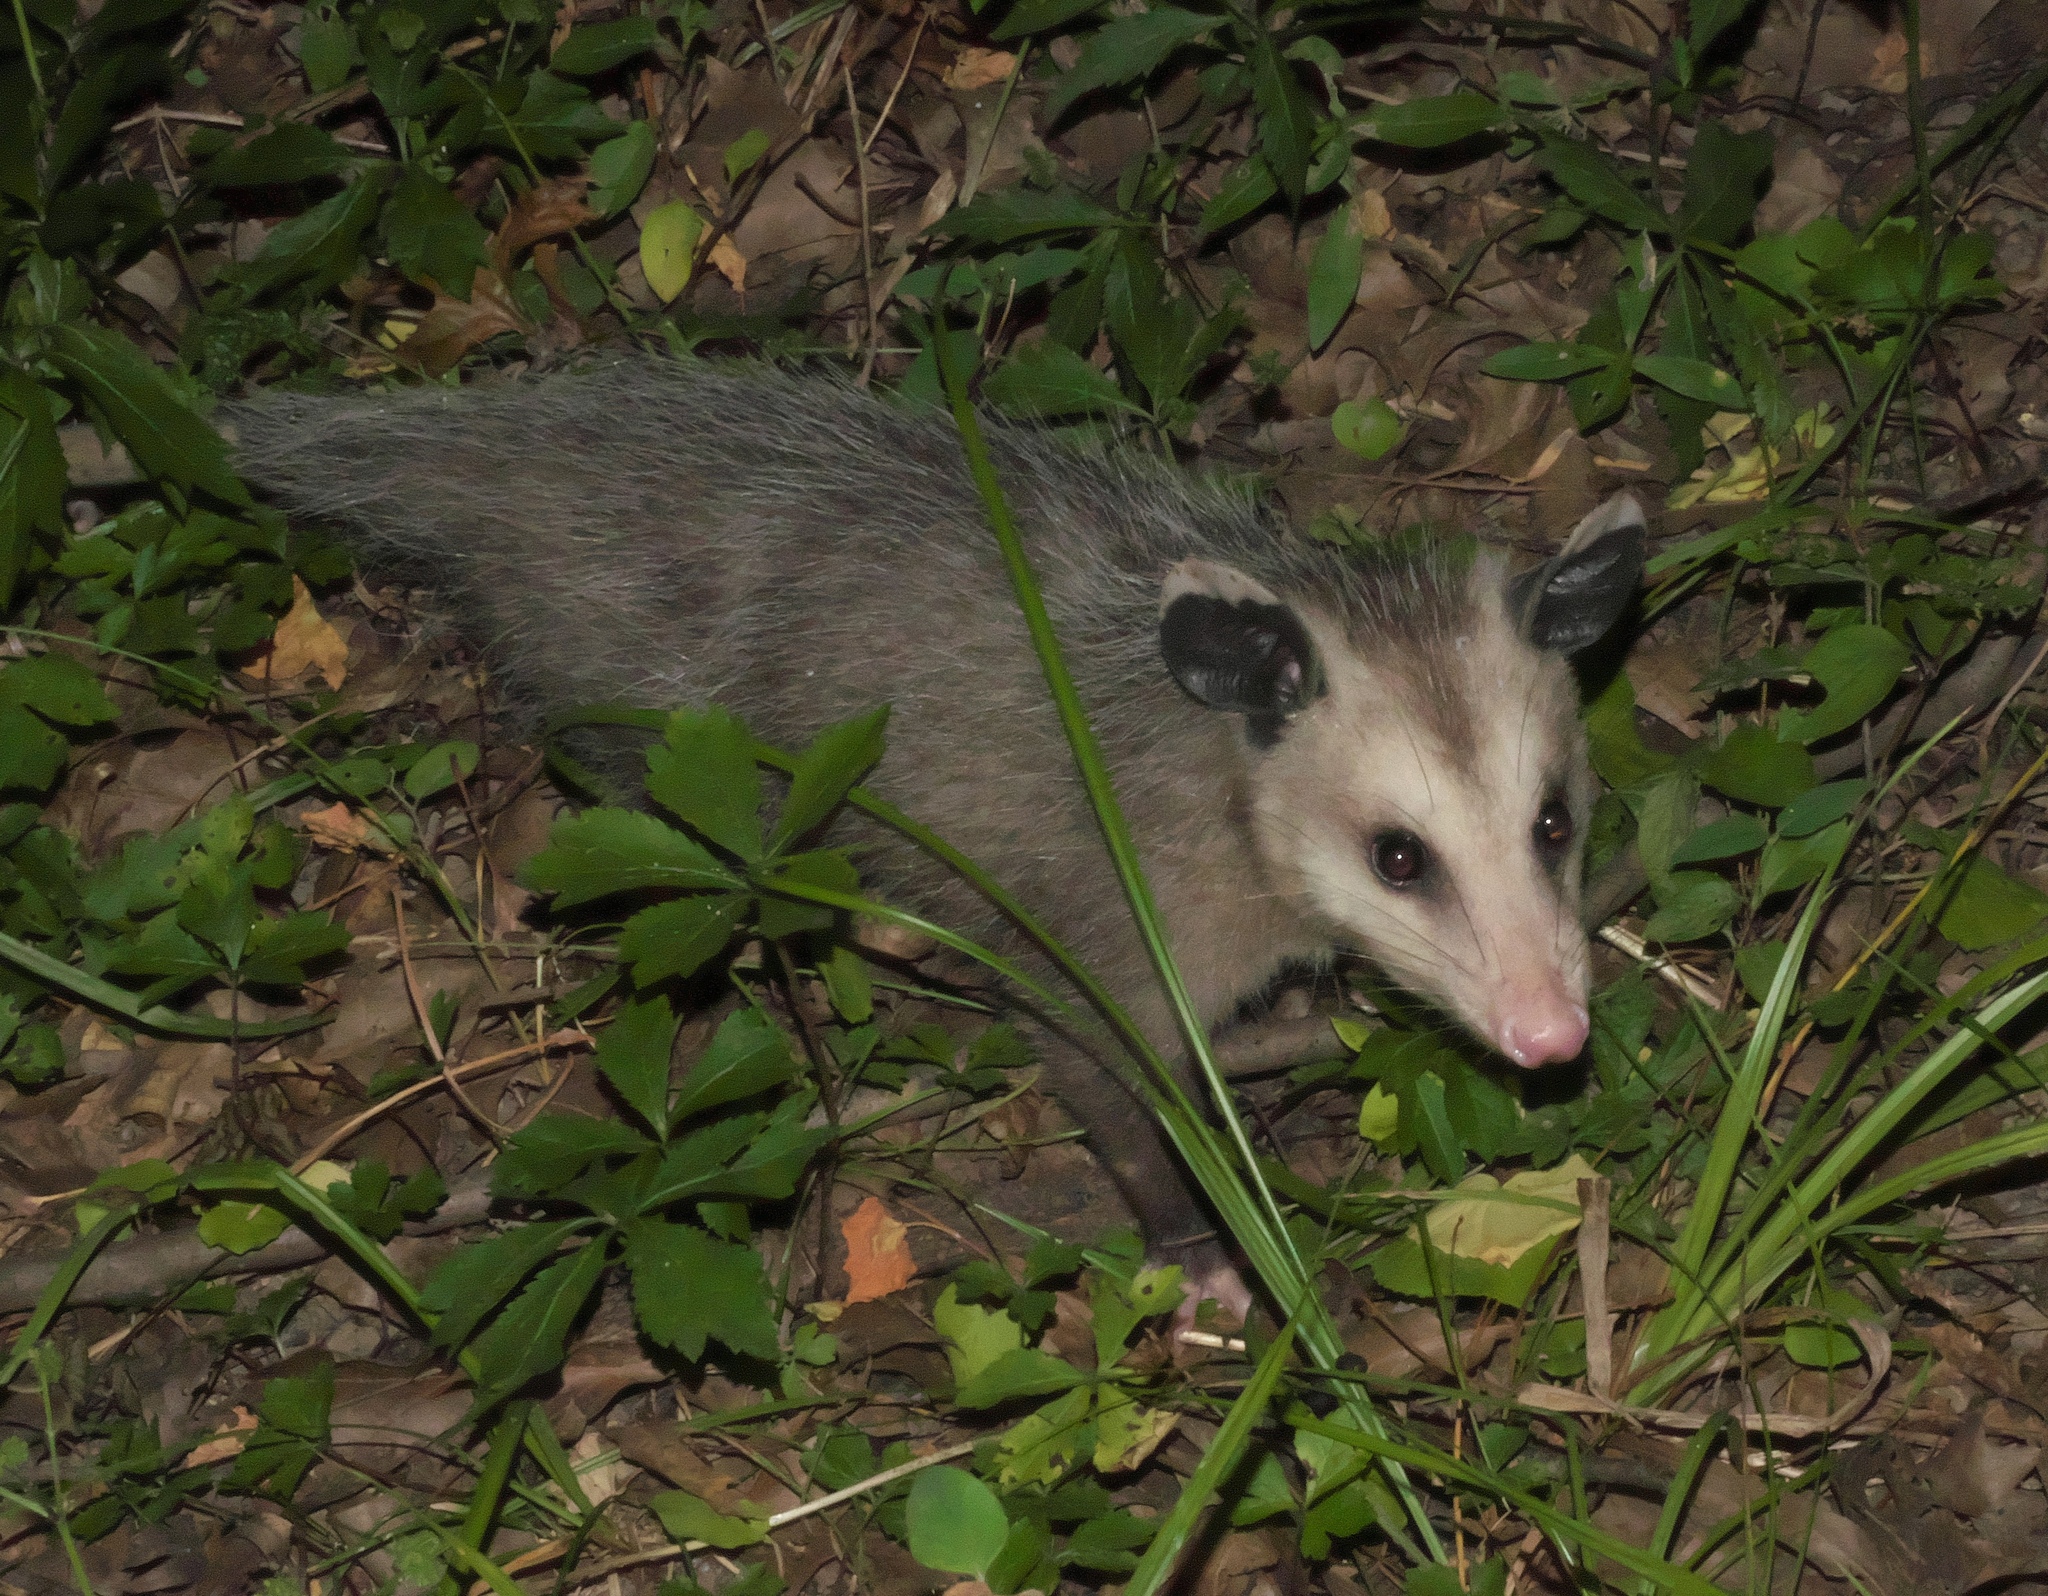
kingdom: Animalia
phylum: Chordata
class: Mammalia
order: Didelphimorphia
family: Didelphidae
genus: Didelphis
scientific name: Didelphis virginiana
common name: Virginia opossum
